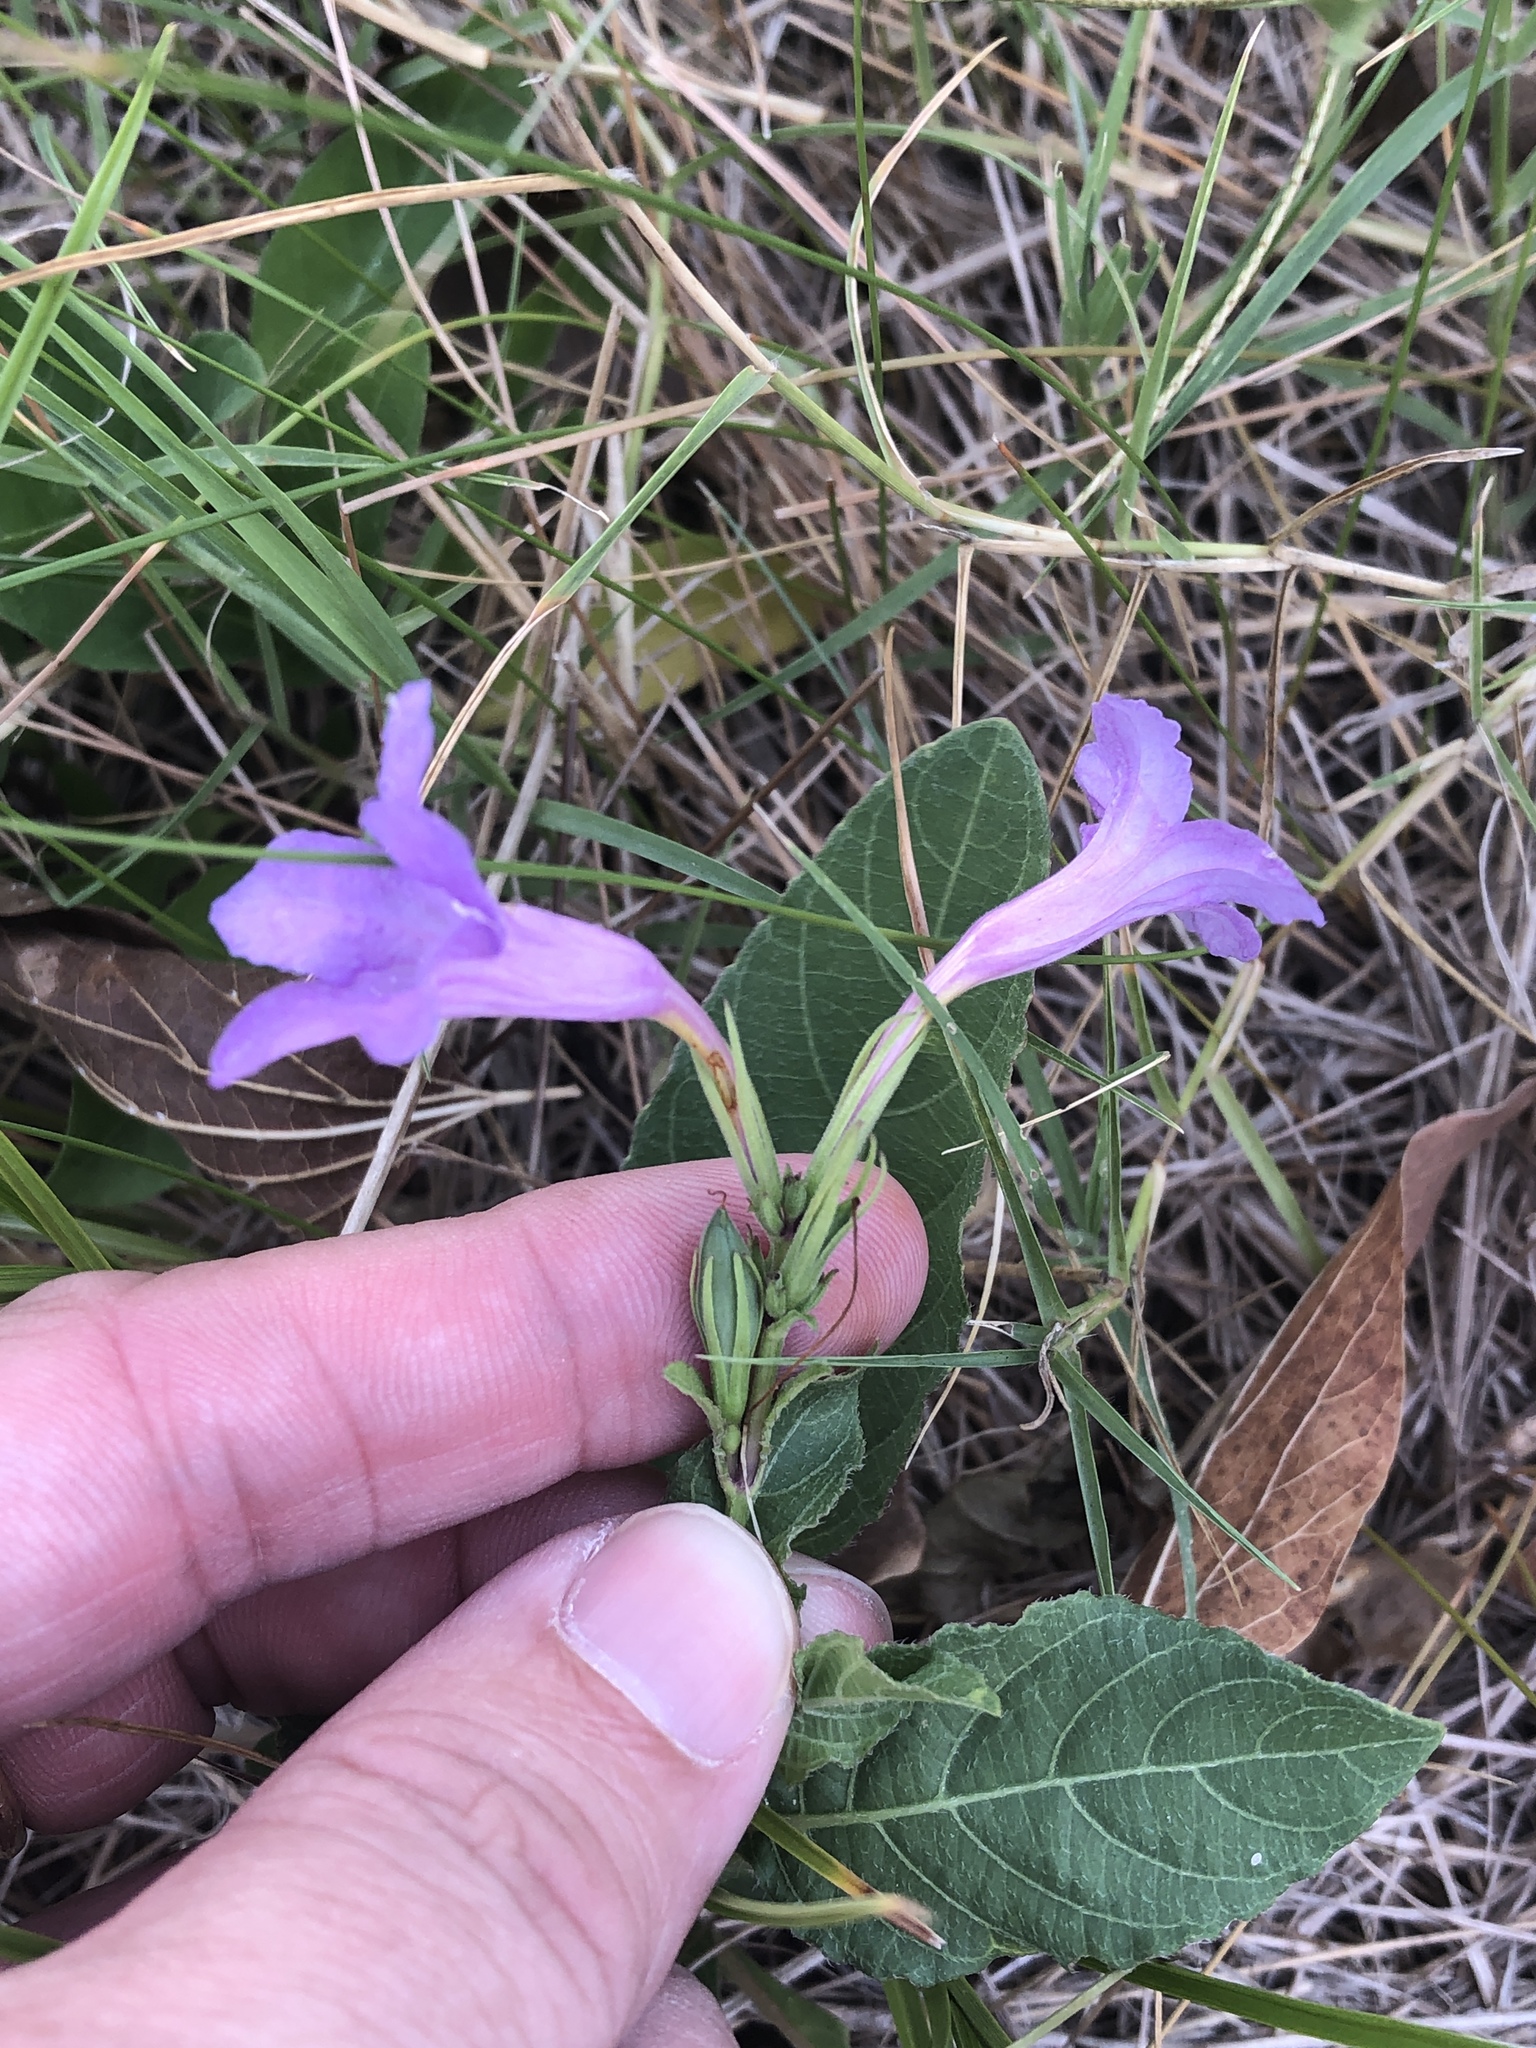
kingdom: Plantae
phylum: Tracheophyta
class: Magnoliopsida
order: Lamiales
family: Acanthaceae
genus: Ruellia
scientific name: Ruellia ciliatiflora
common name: Hairyflower wild petunia
